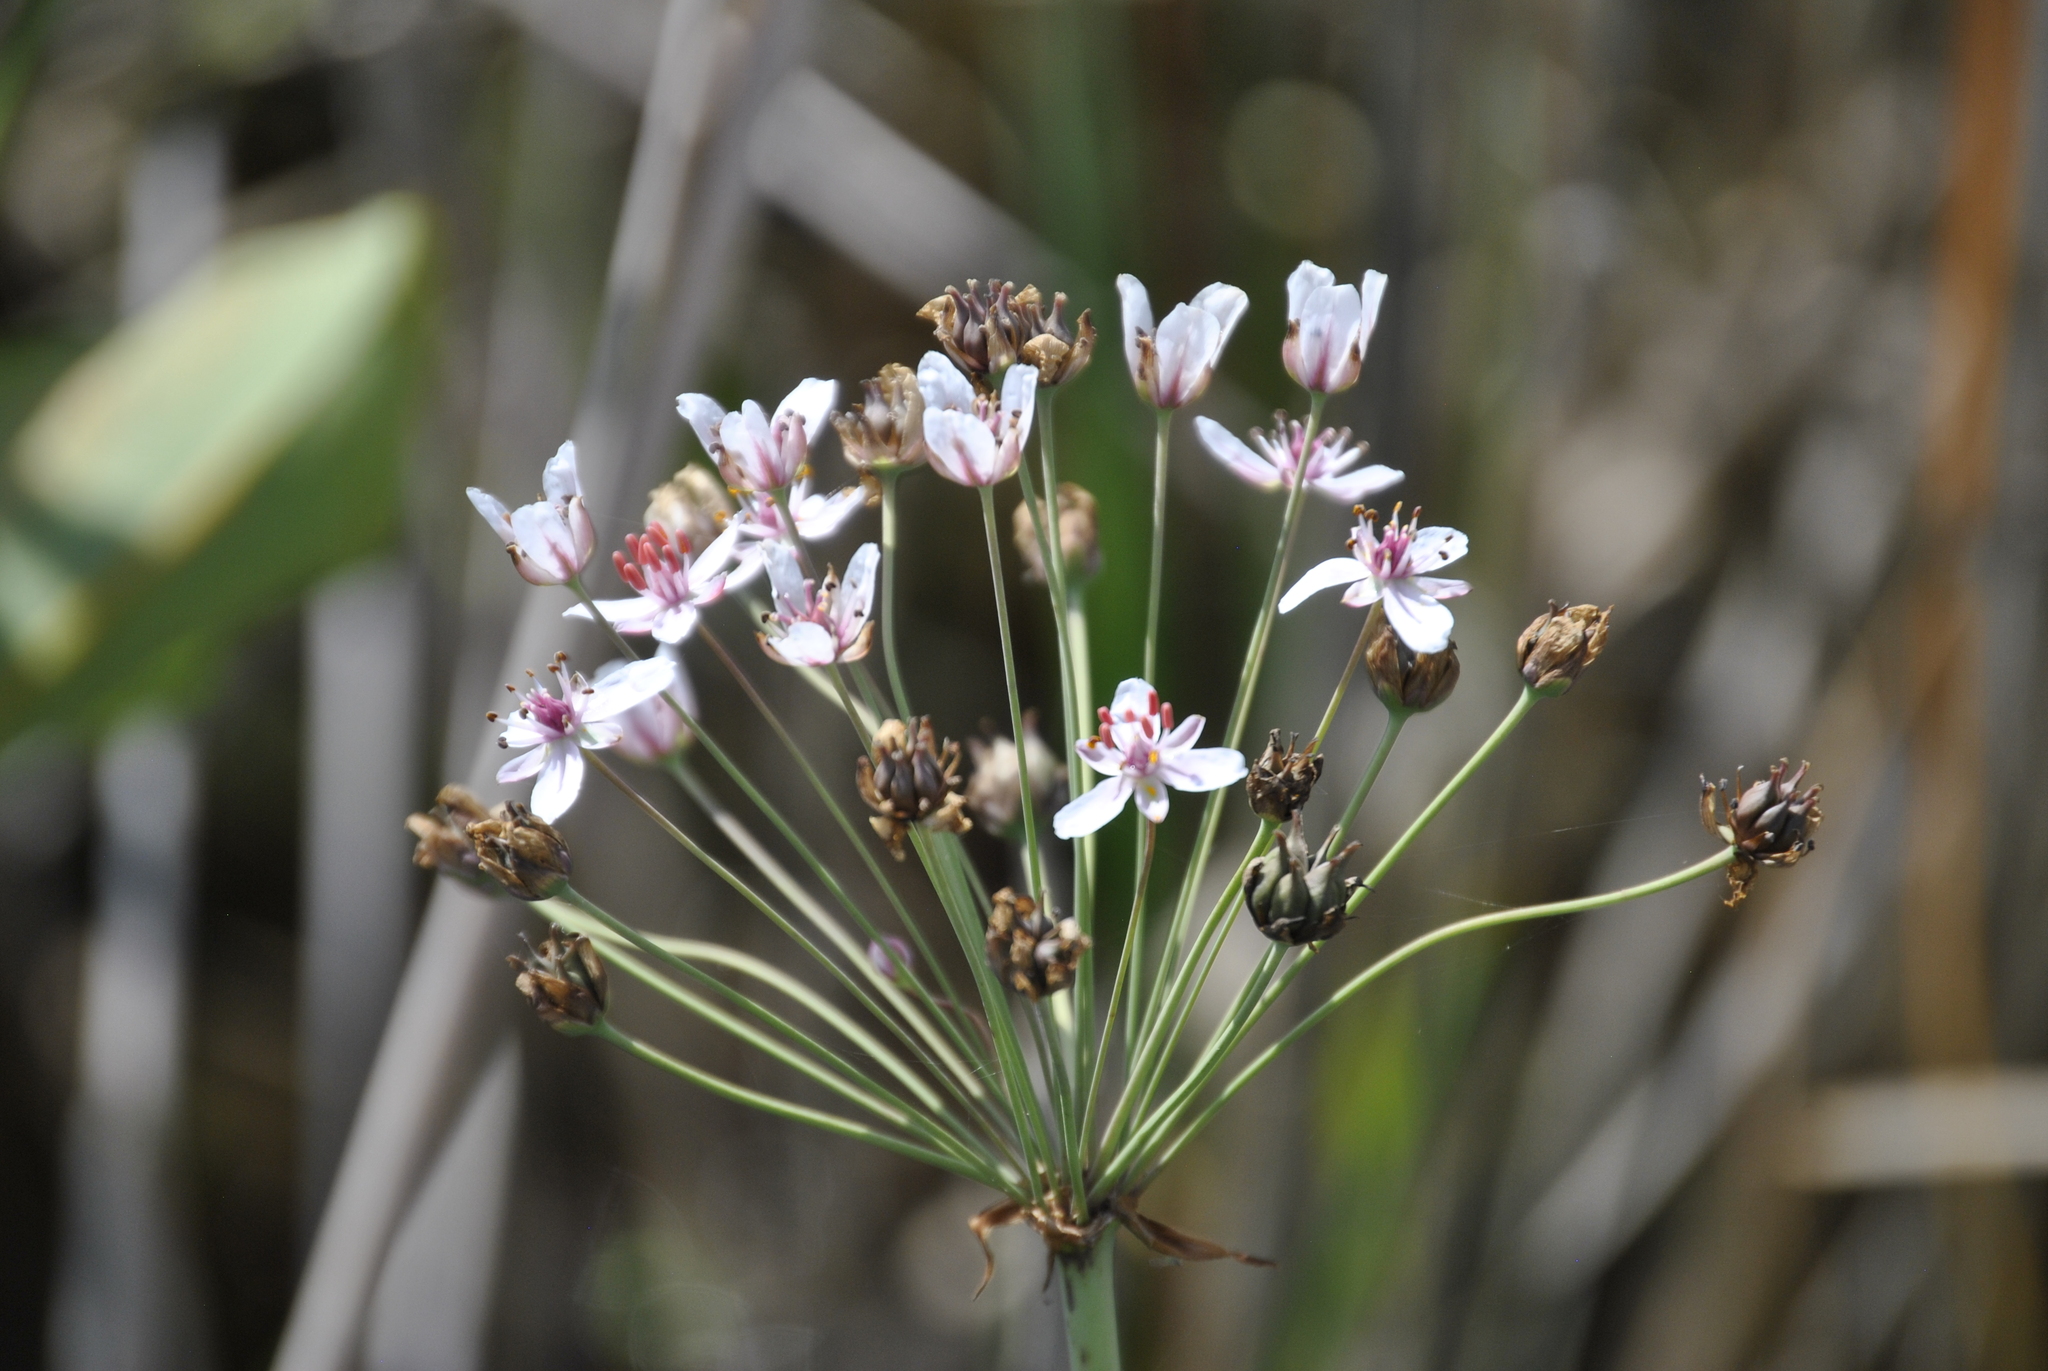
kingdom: Plantae
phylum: Tracheophyta
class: Liliopsida
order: Alismatales
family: Butomaceae
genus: Butomus
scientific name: Butomus umbellatus
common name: Flowering-rush
